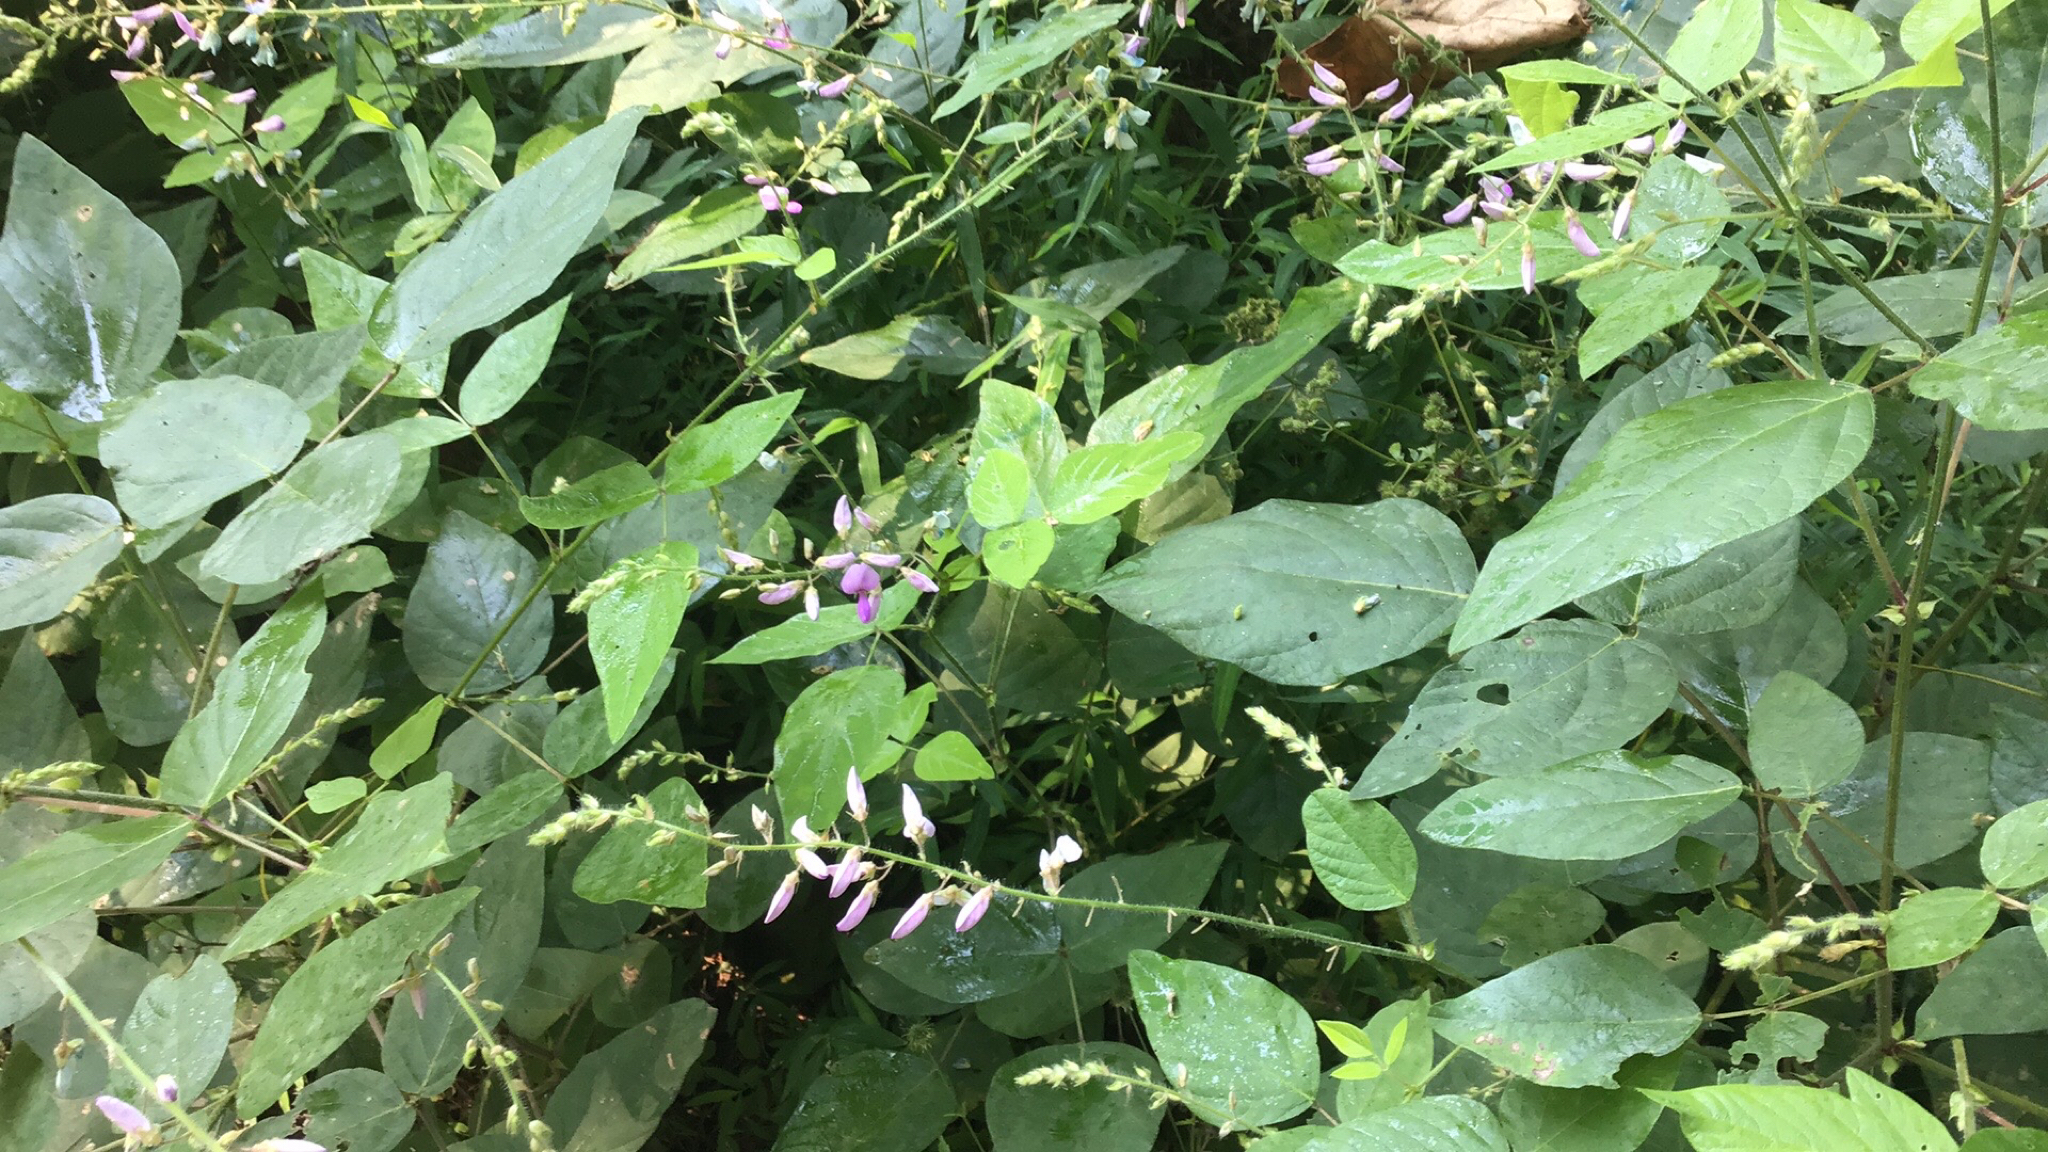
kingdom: Plantae
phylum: Tracheophyta
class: Magnoliopsida
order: Fabales
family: Fabaceae
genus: Desmodium
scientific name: Desmodium canescens
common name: Hoary tick-clover
